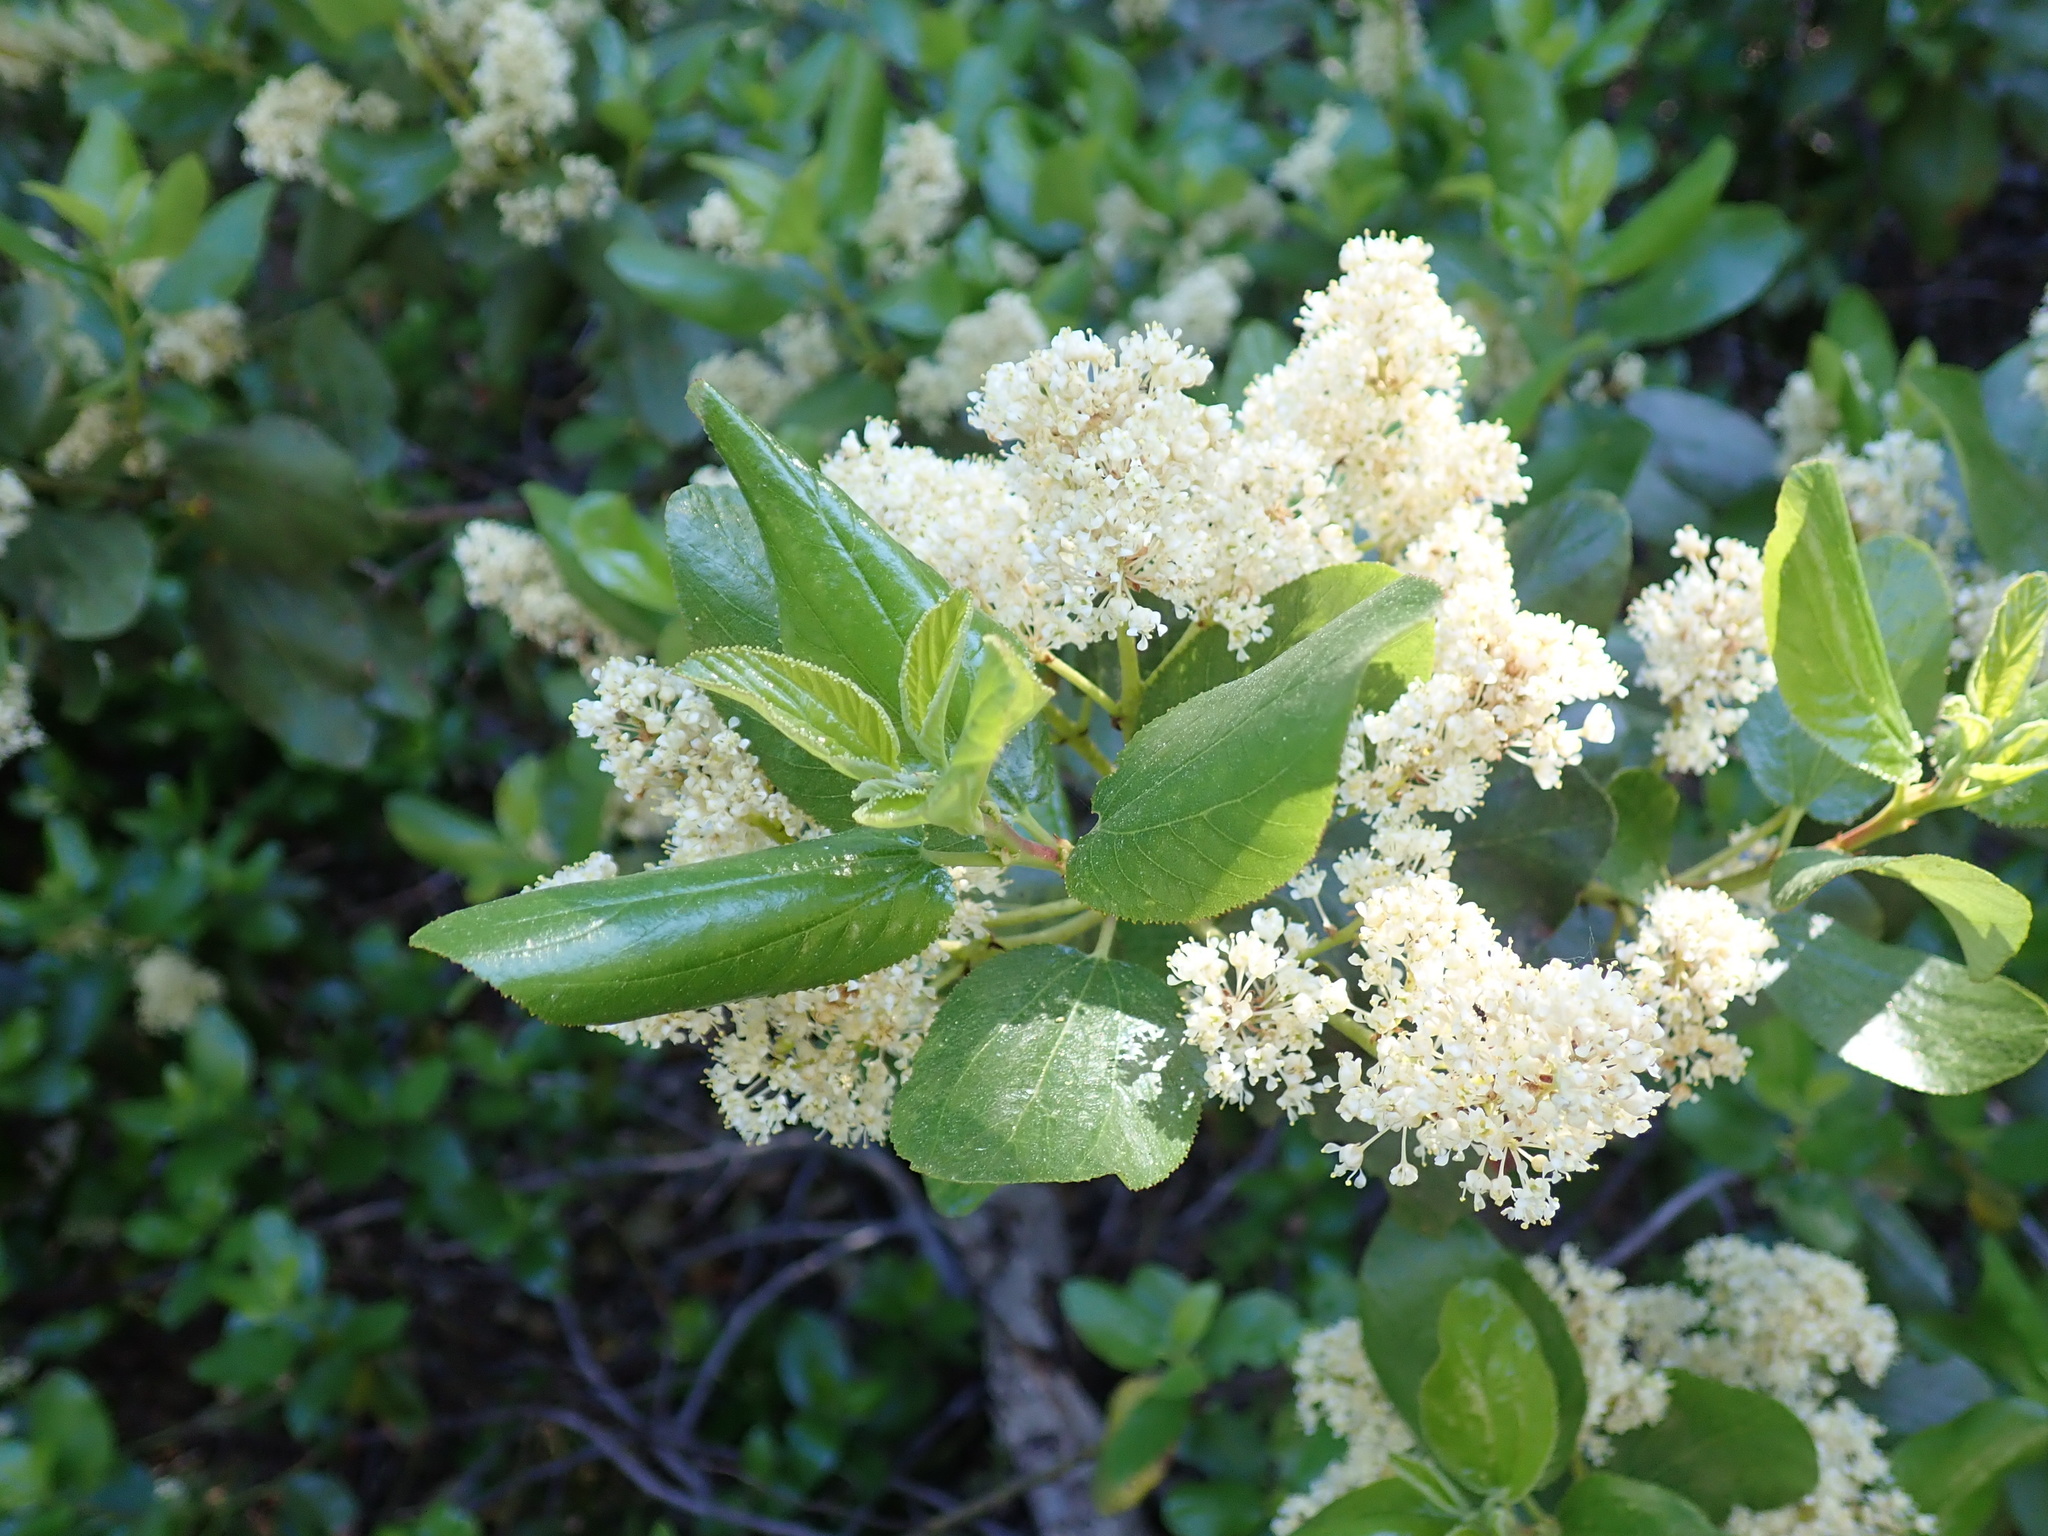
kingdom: Plantae
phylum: Tracheophyta
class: Magnoliopsida
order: Rosales
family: Rhamnaceae
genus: Ceanothus
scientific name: Ceanothus velutinus
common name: Snowbrush
